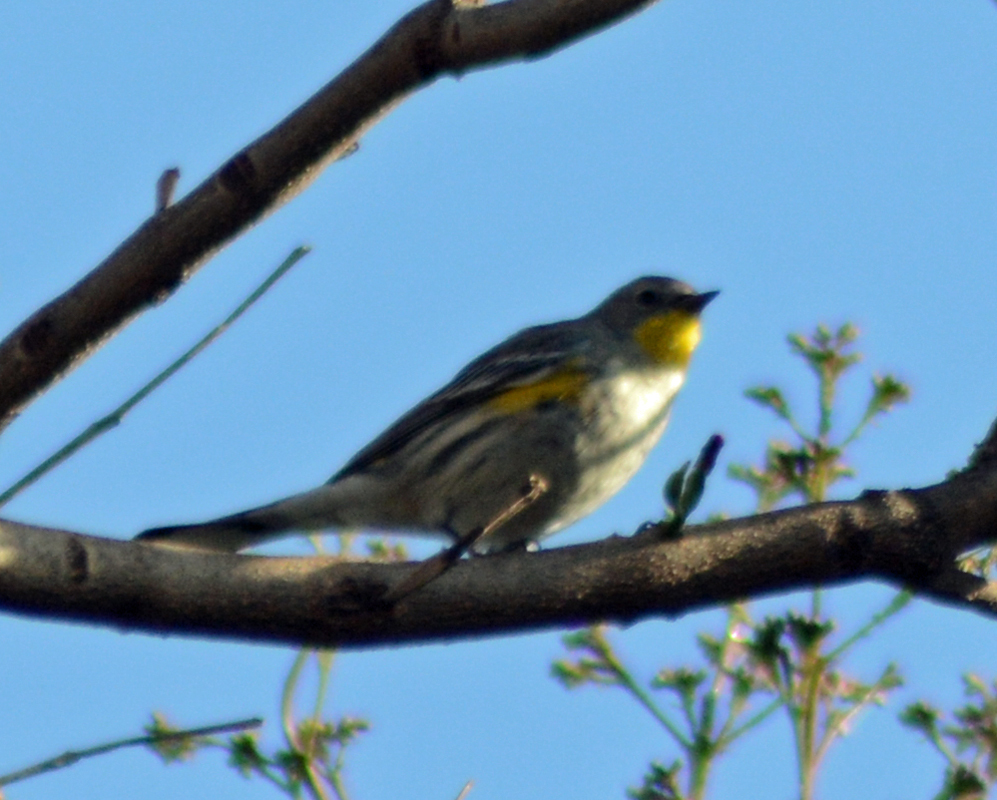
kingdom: Animalia
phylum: Chordata
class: Aves
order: Passeriformes
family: Parulidae
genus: Setophaga
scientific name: Setophaga auduboni
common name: Audubon's warbler
